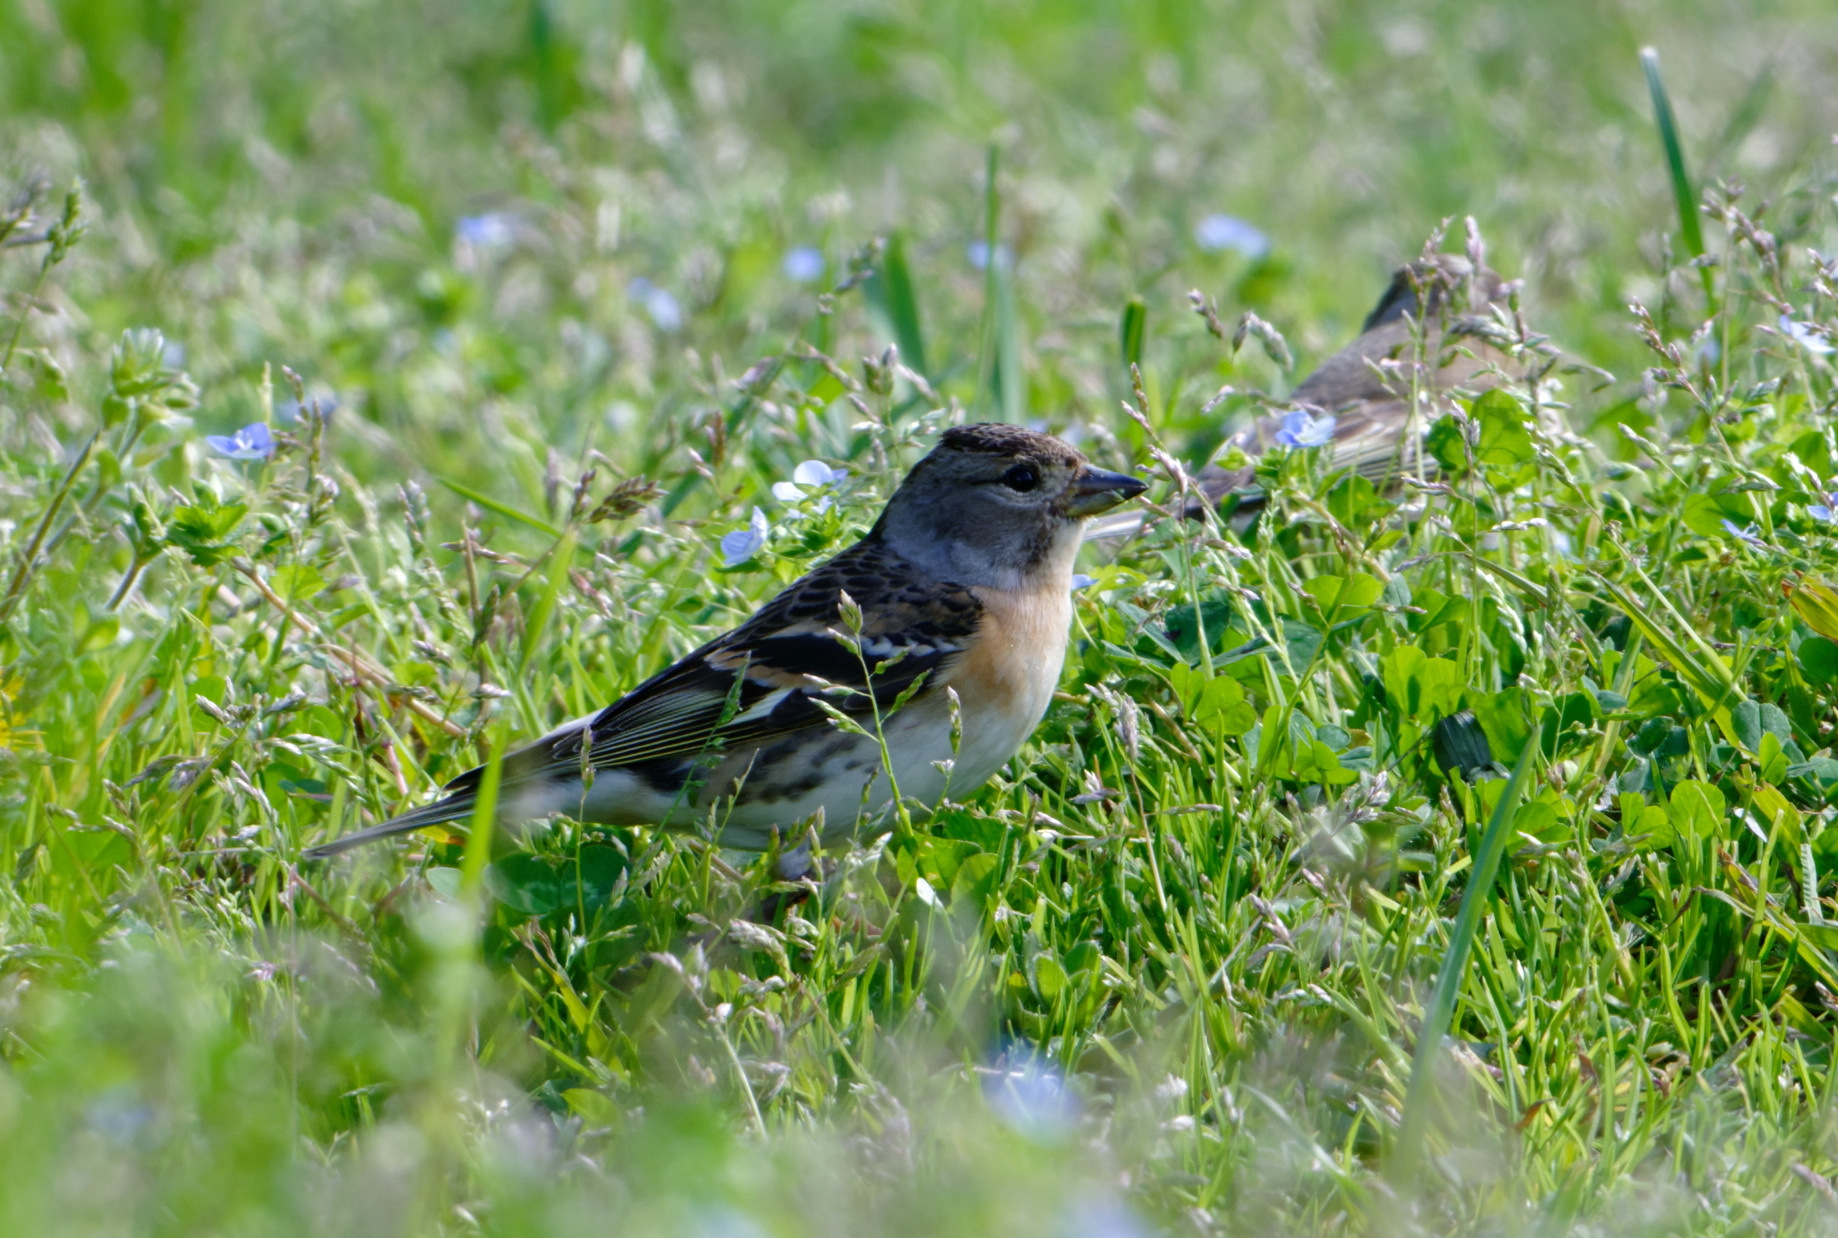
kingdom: Animalia
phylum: Chordata
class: Aves
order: Passeriformes
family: Fringillidae
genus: Fringilla
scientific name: Fringilla montifringilla
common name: Brambling
